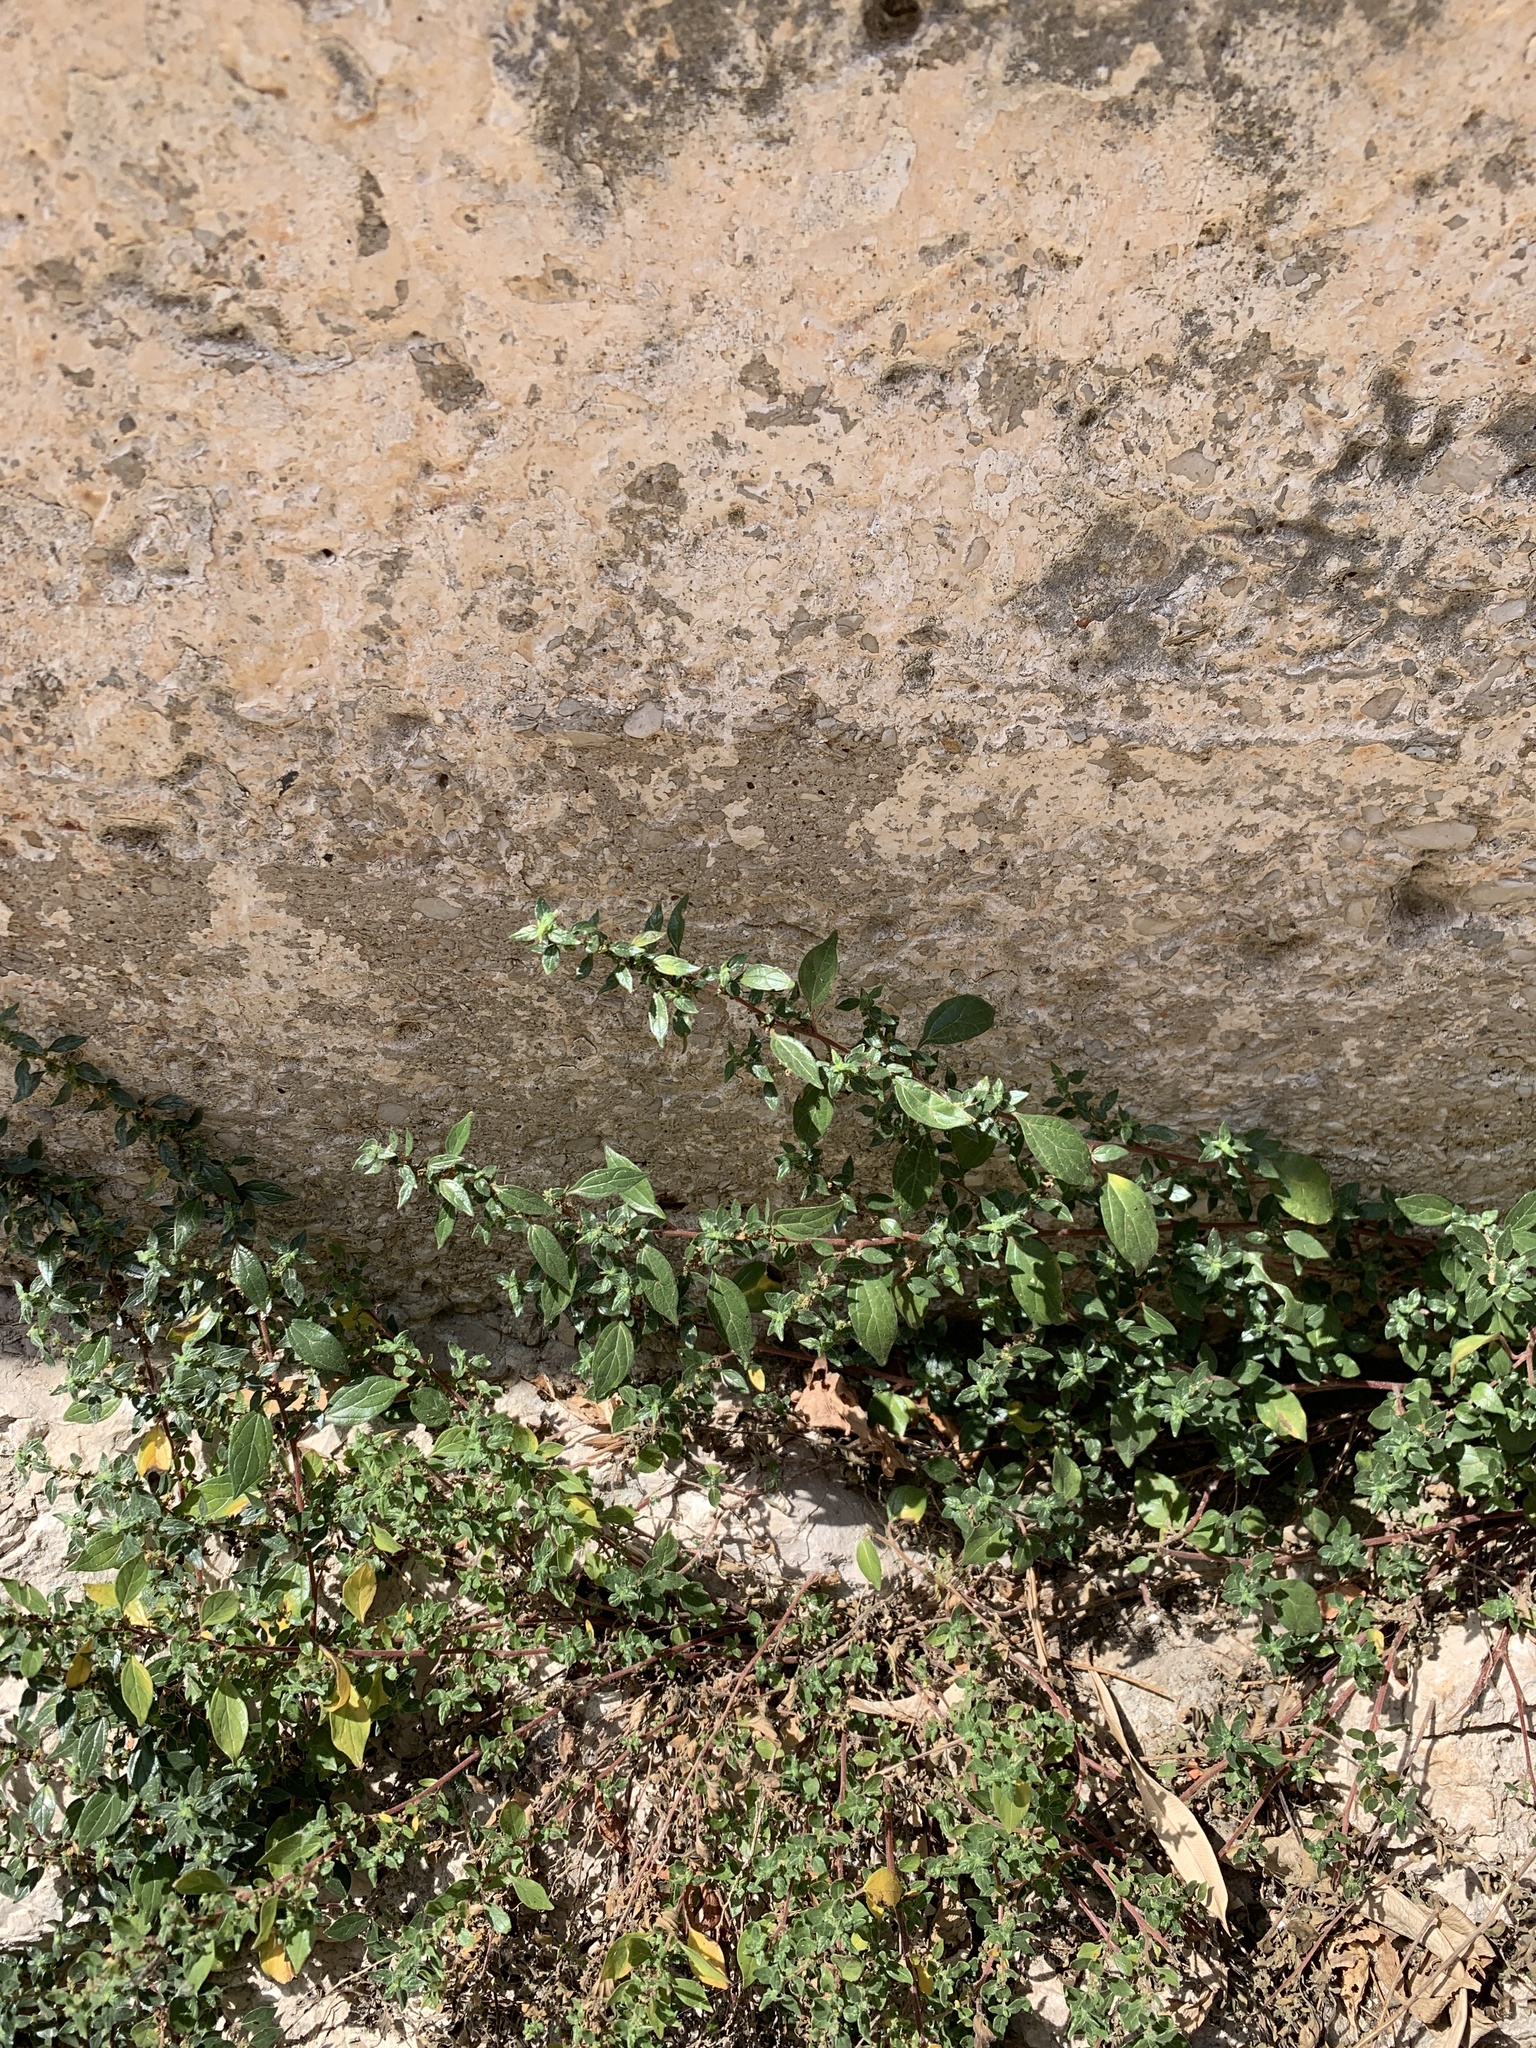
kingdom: Plantae
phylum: Tracheophyta
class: Magnoliopsida
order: Rosales
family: Urticaceae
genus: Parietaria
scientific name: Parietaria judaica
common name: Pellitory-of-the-wall
